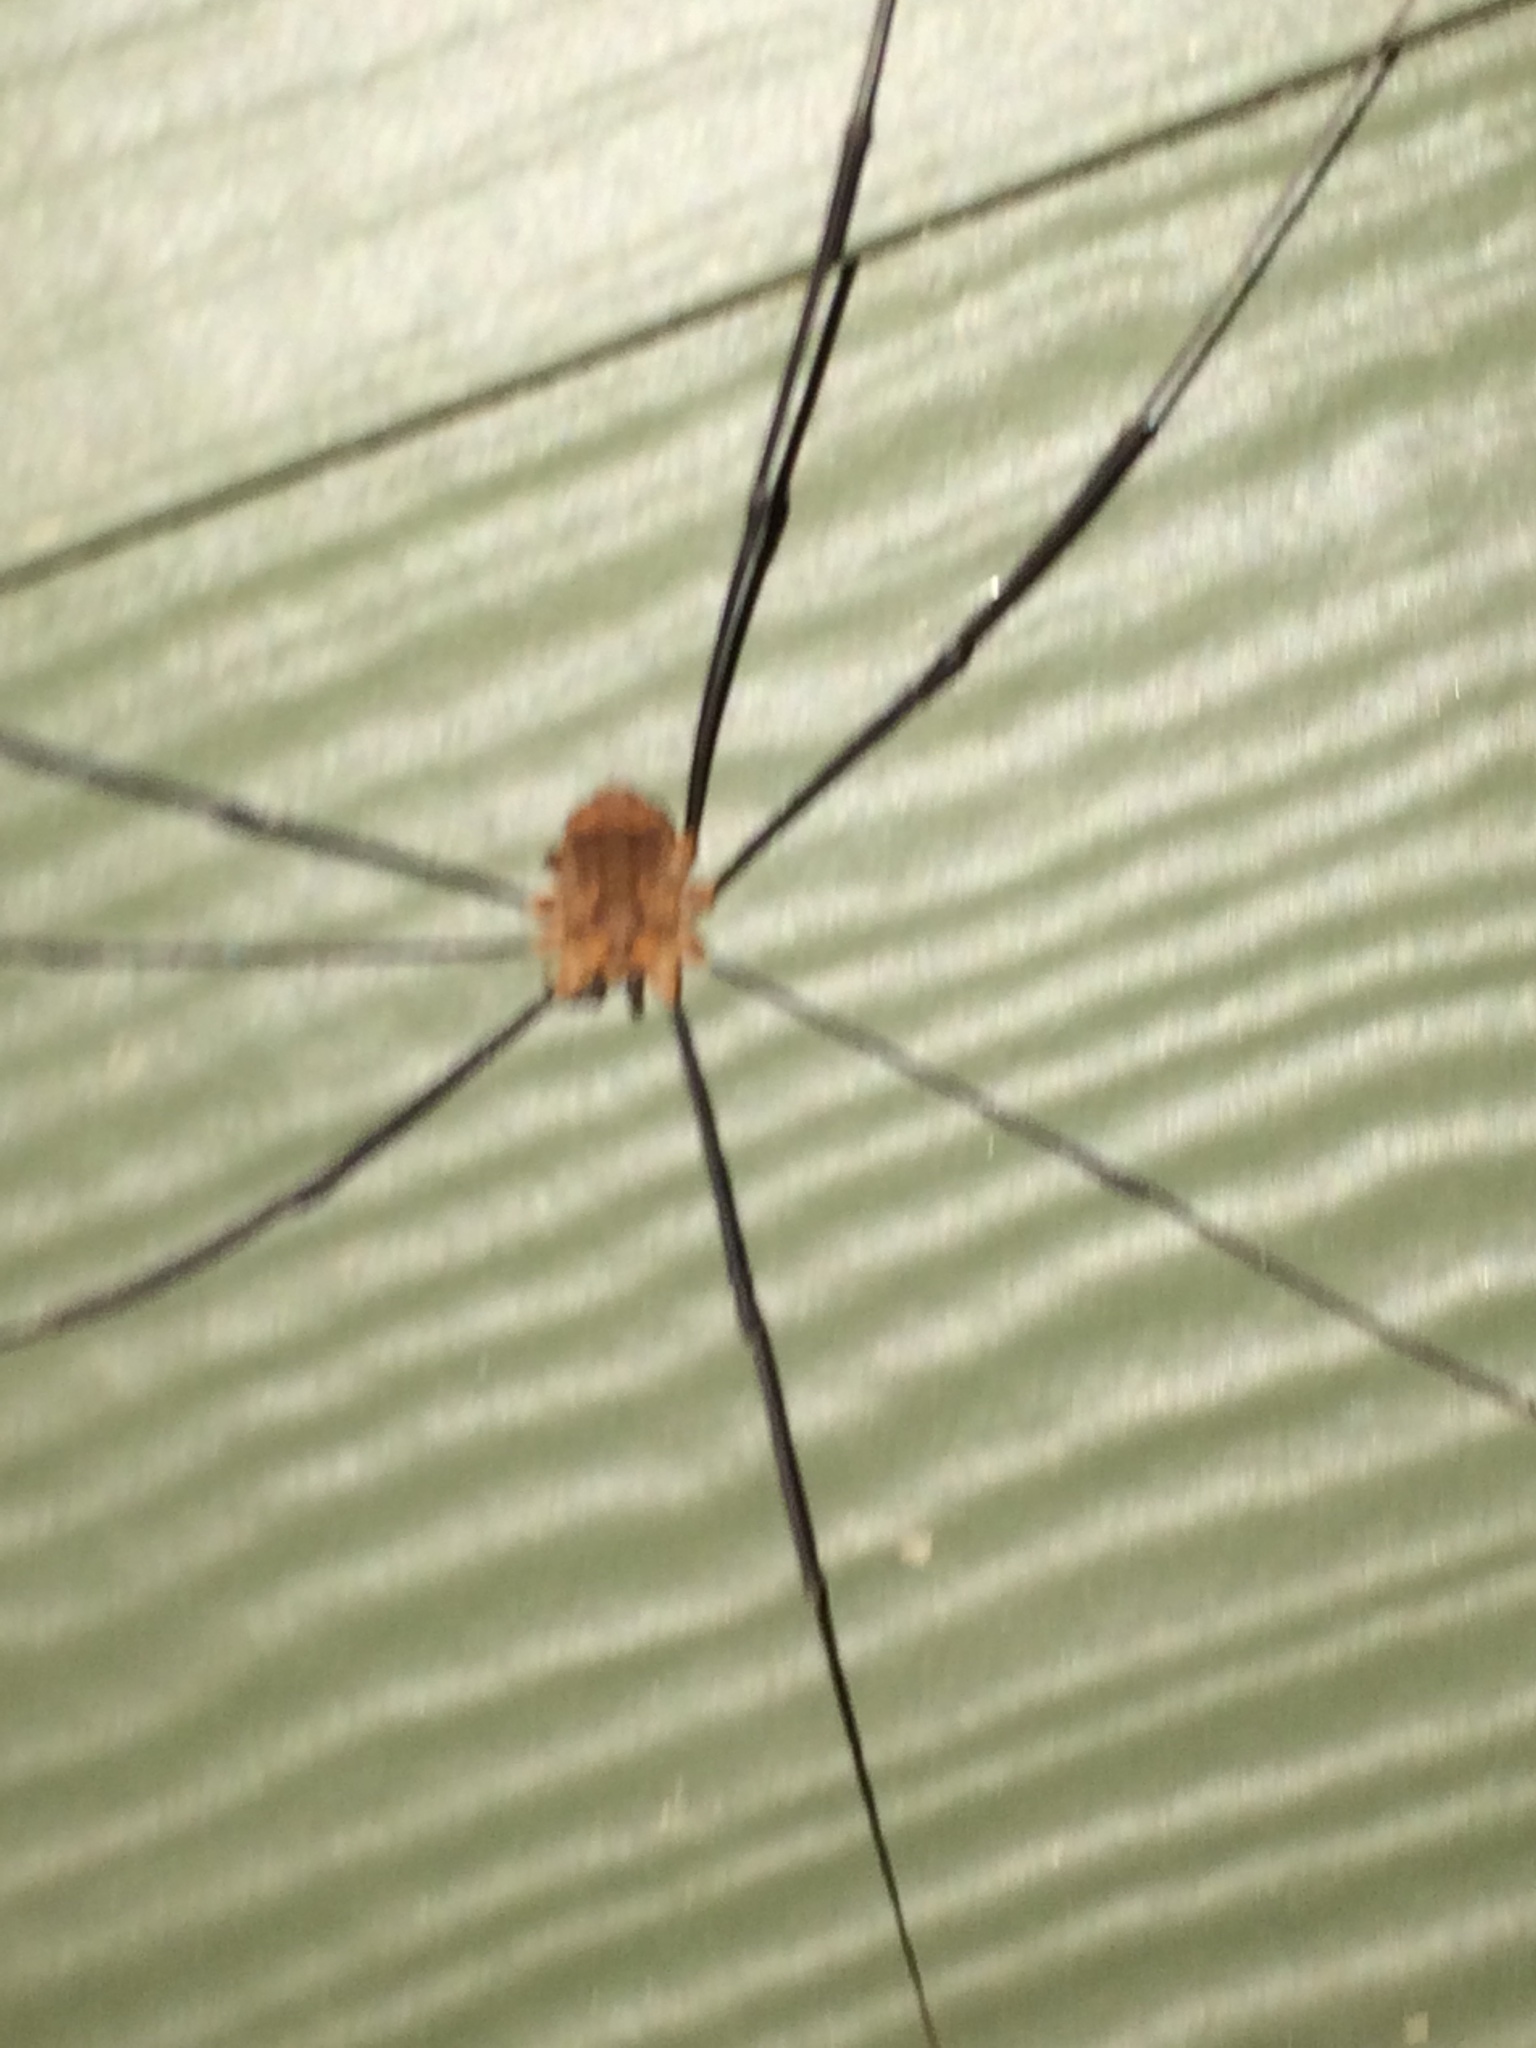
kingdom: Animalia
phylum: Arthropoda
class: Arachnida
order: Opiliones
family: Sclerosomatidae
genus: Nelima
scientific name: Nelima paessleri
